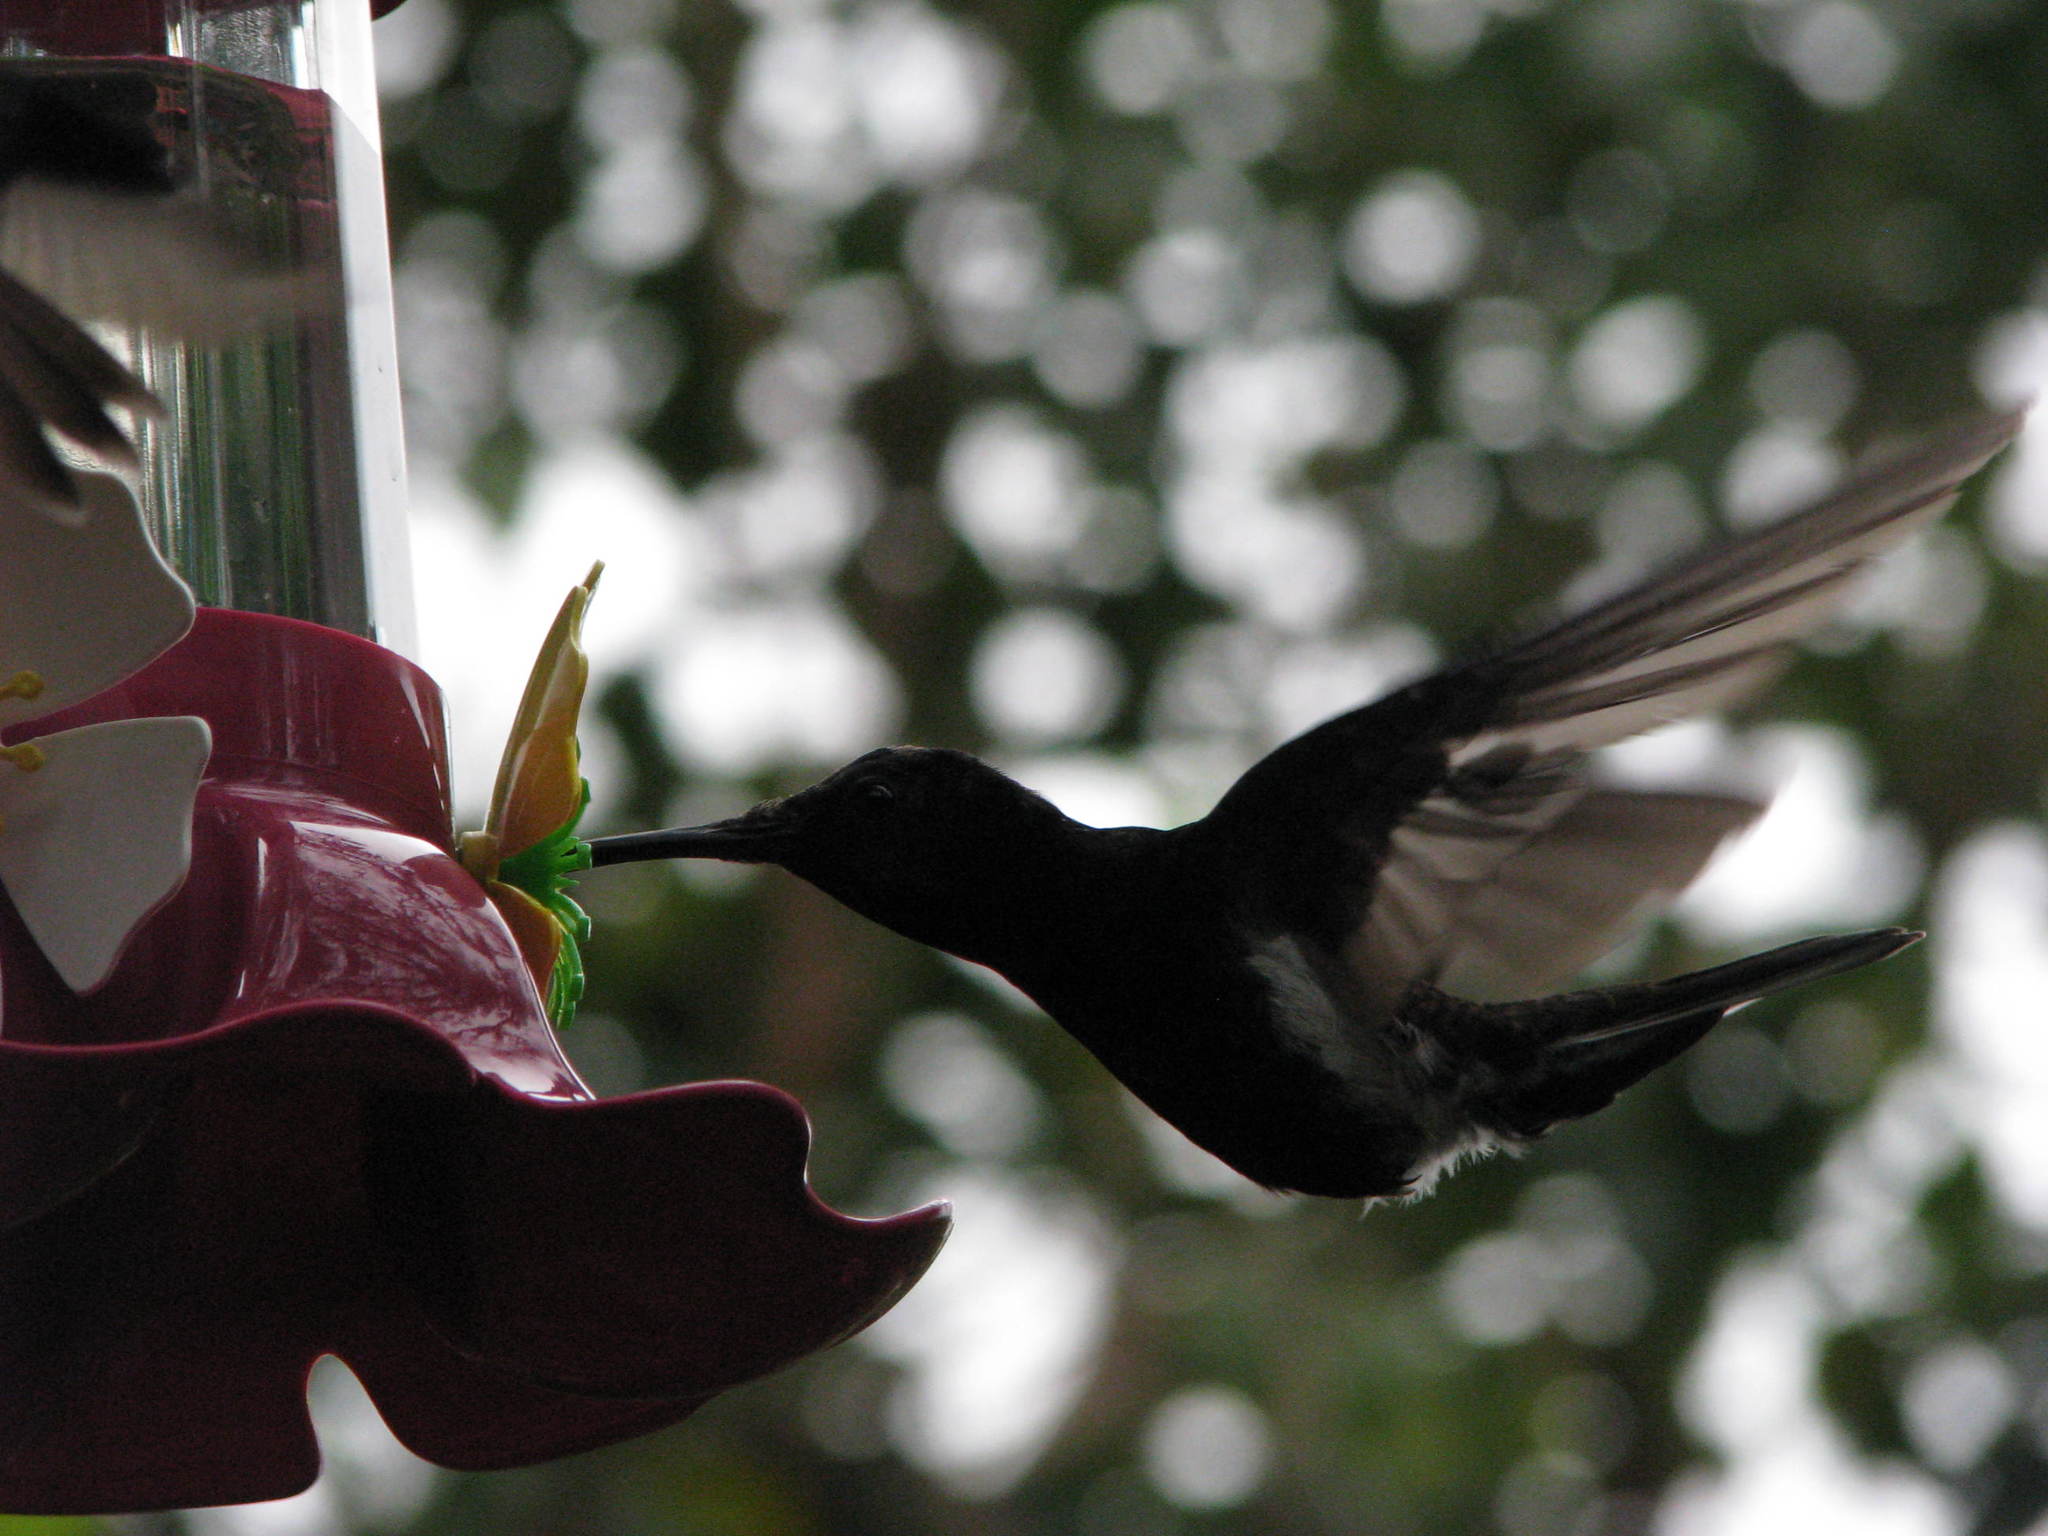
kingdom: Animalia
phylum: Chordata
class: Aves
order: Apodiformes
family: Trochilidae
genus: Florisuga
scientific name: Florisuga fusca
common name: Black jacobin
